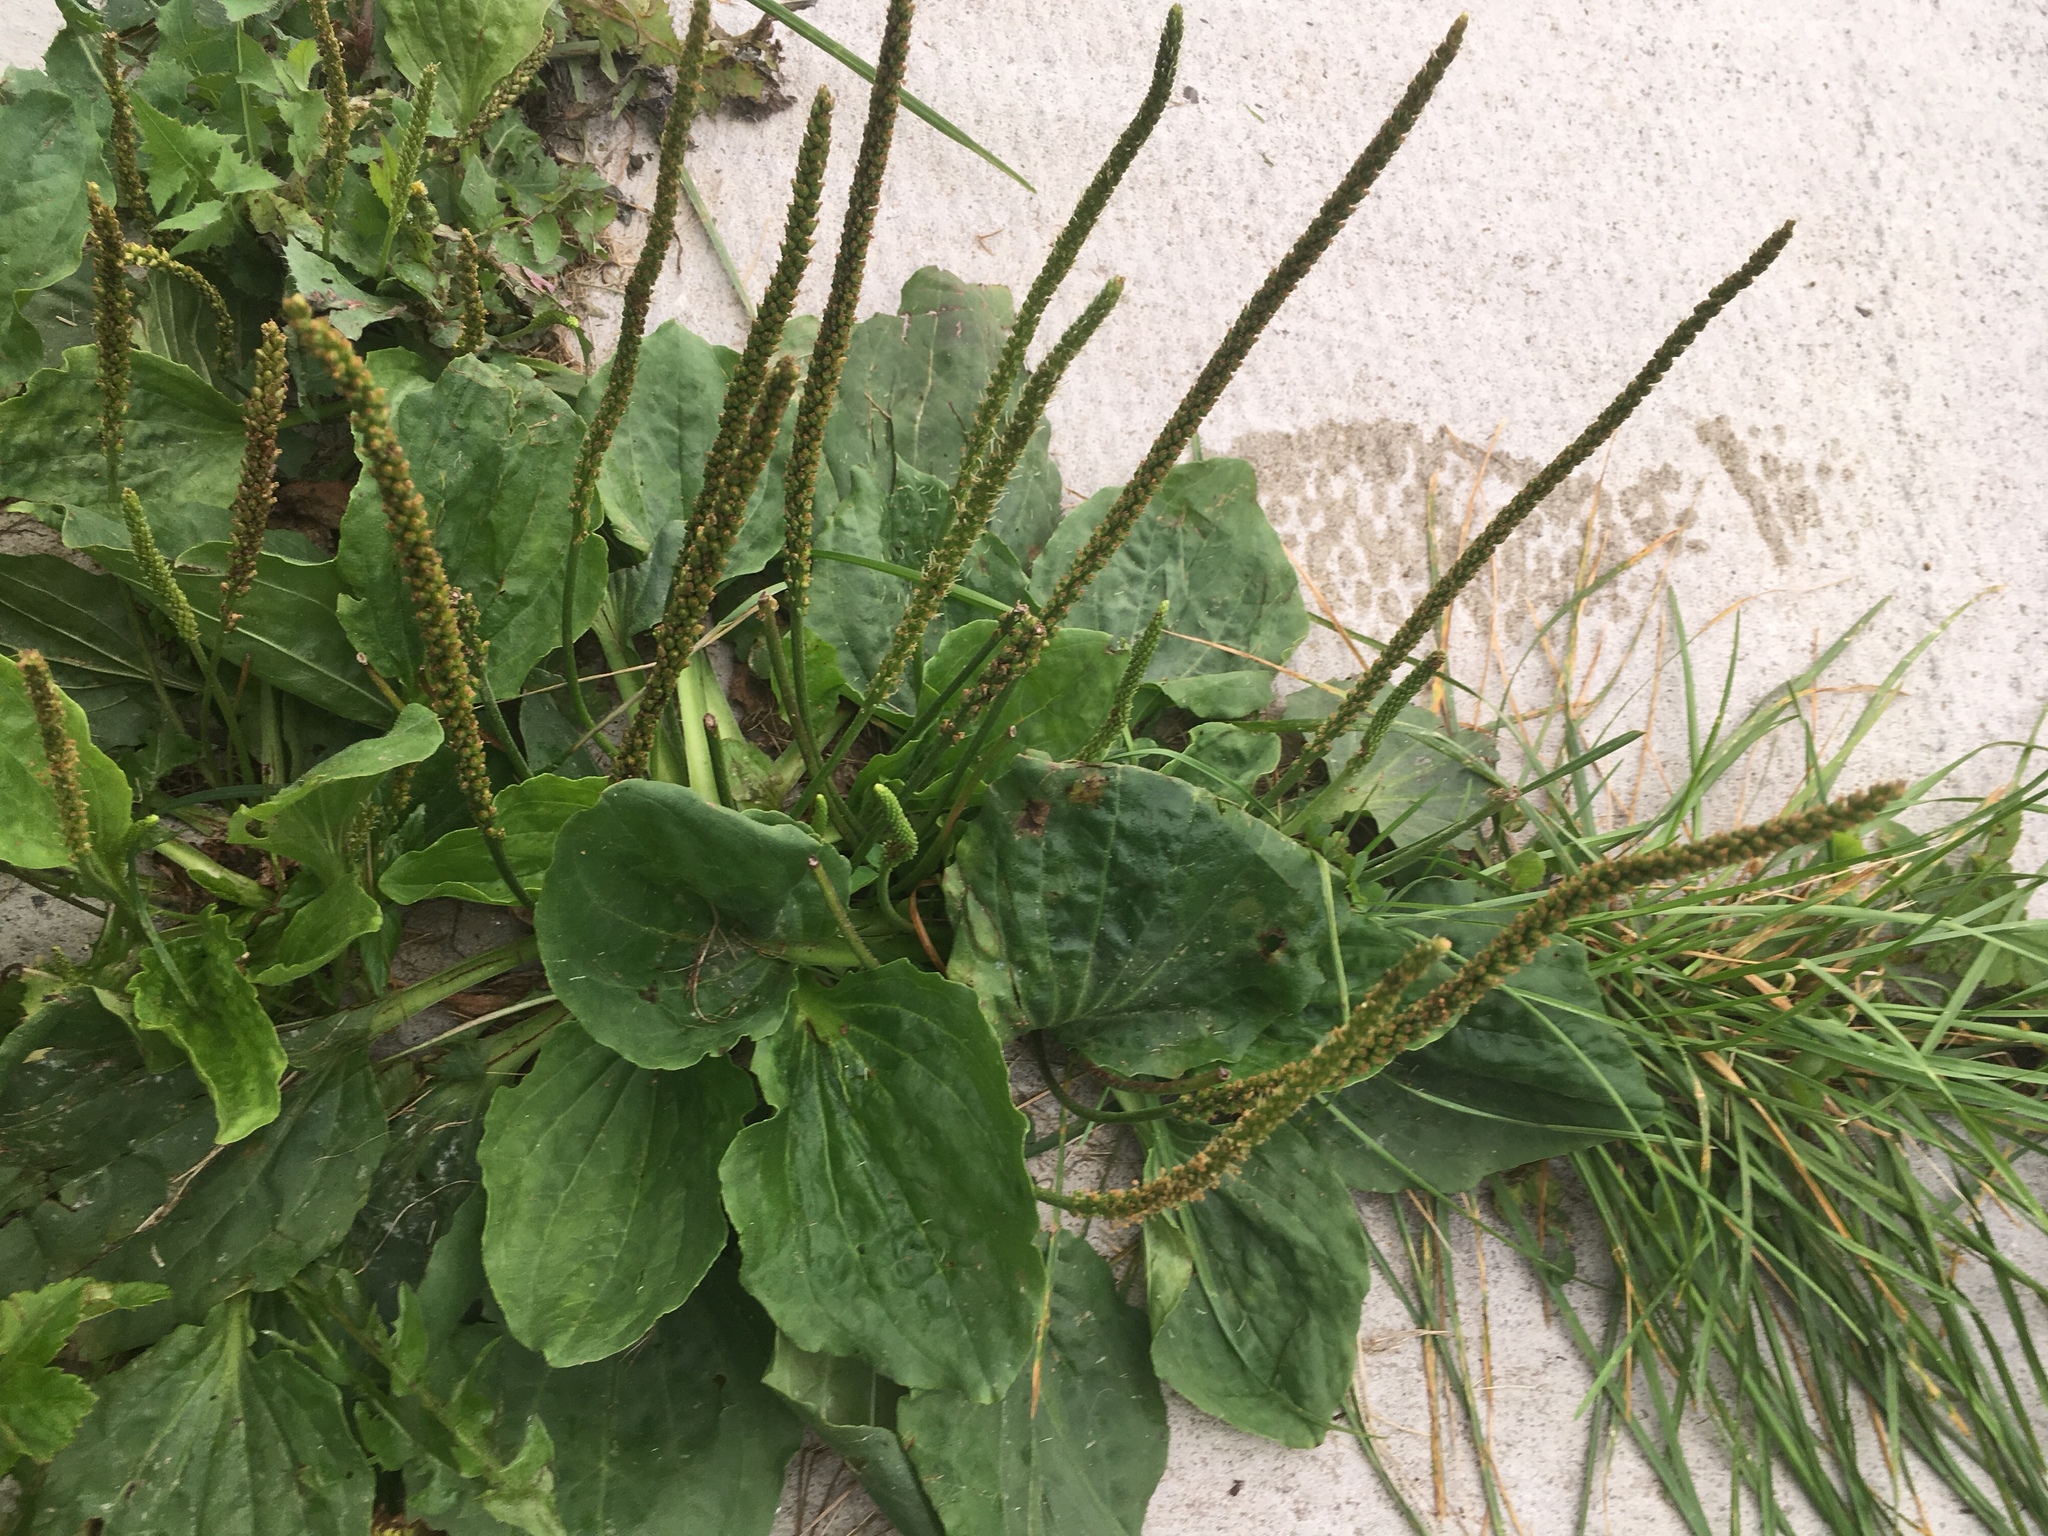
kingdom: Plantae
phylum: Tracheophyta
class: Magnoliopsida
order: Lamiales
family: Plantaginaceae
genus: Plantago
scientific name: Plantago major
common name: Common plantain
